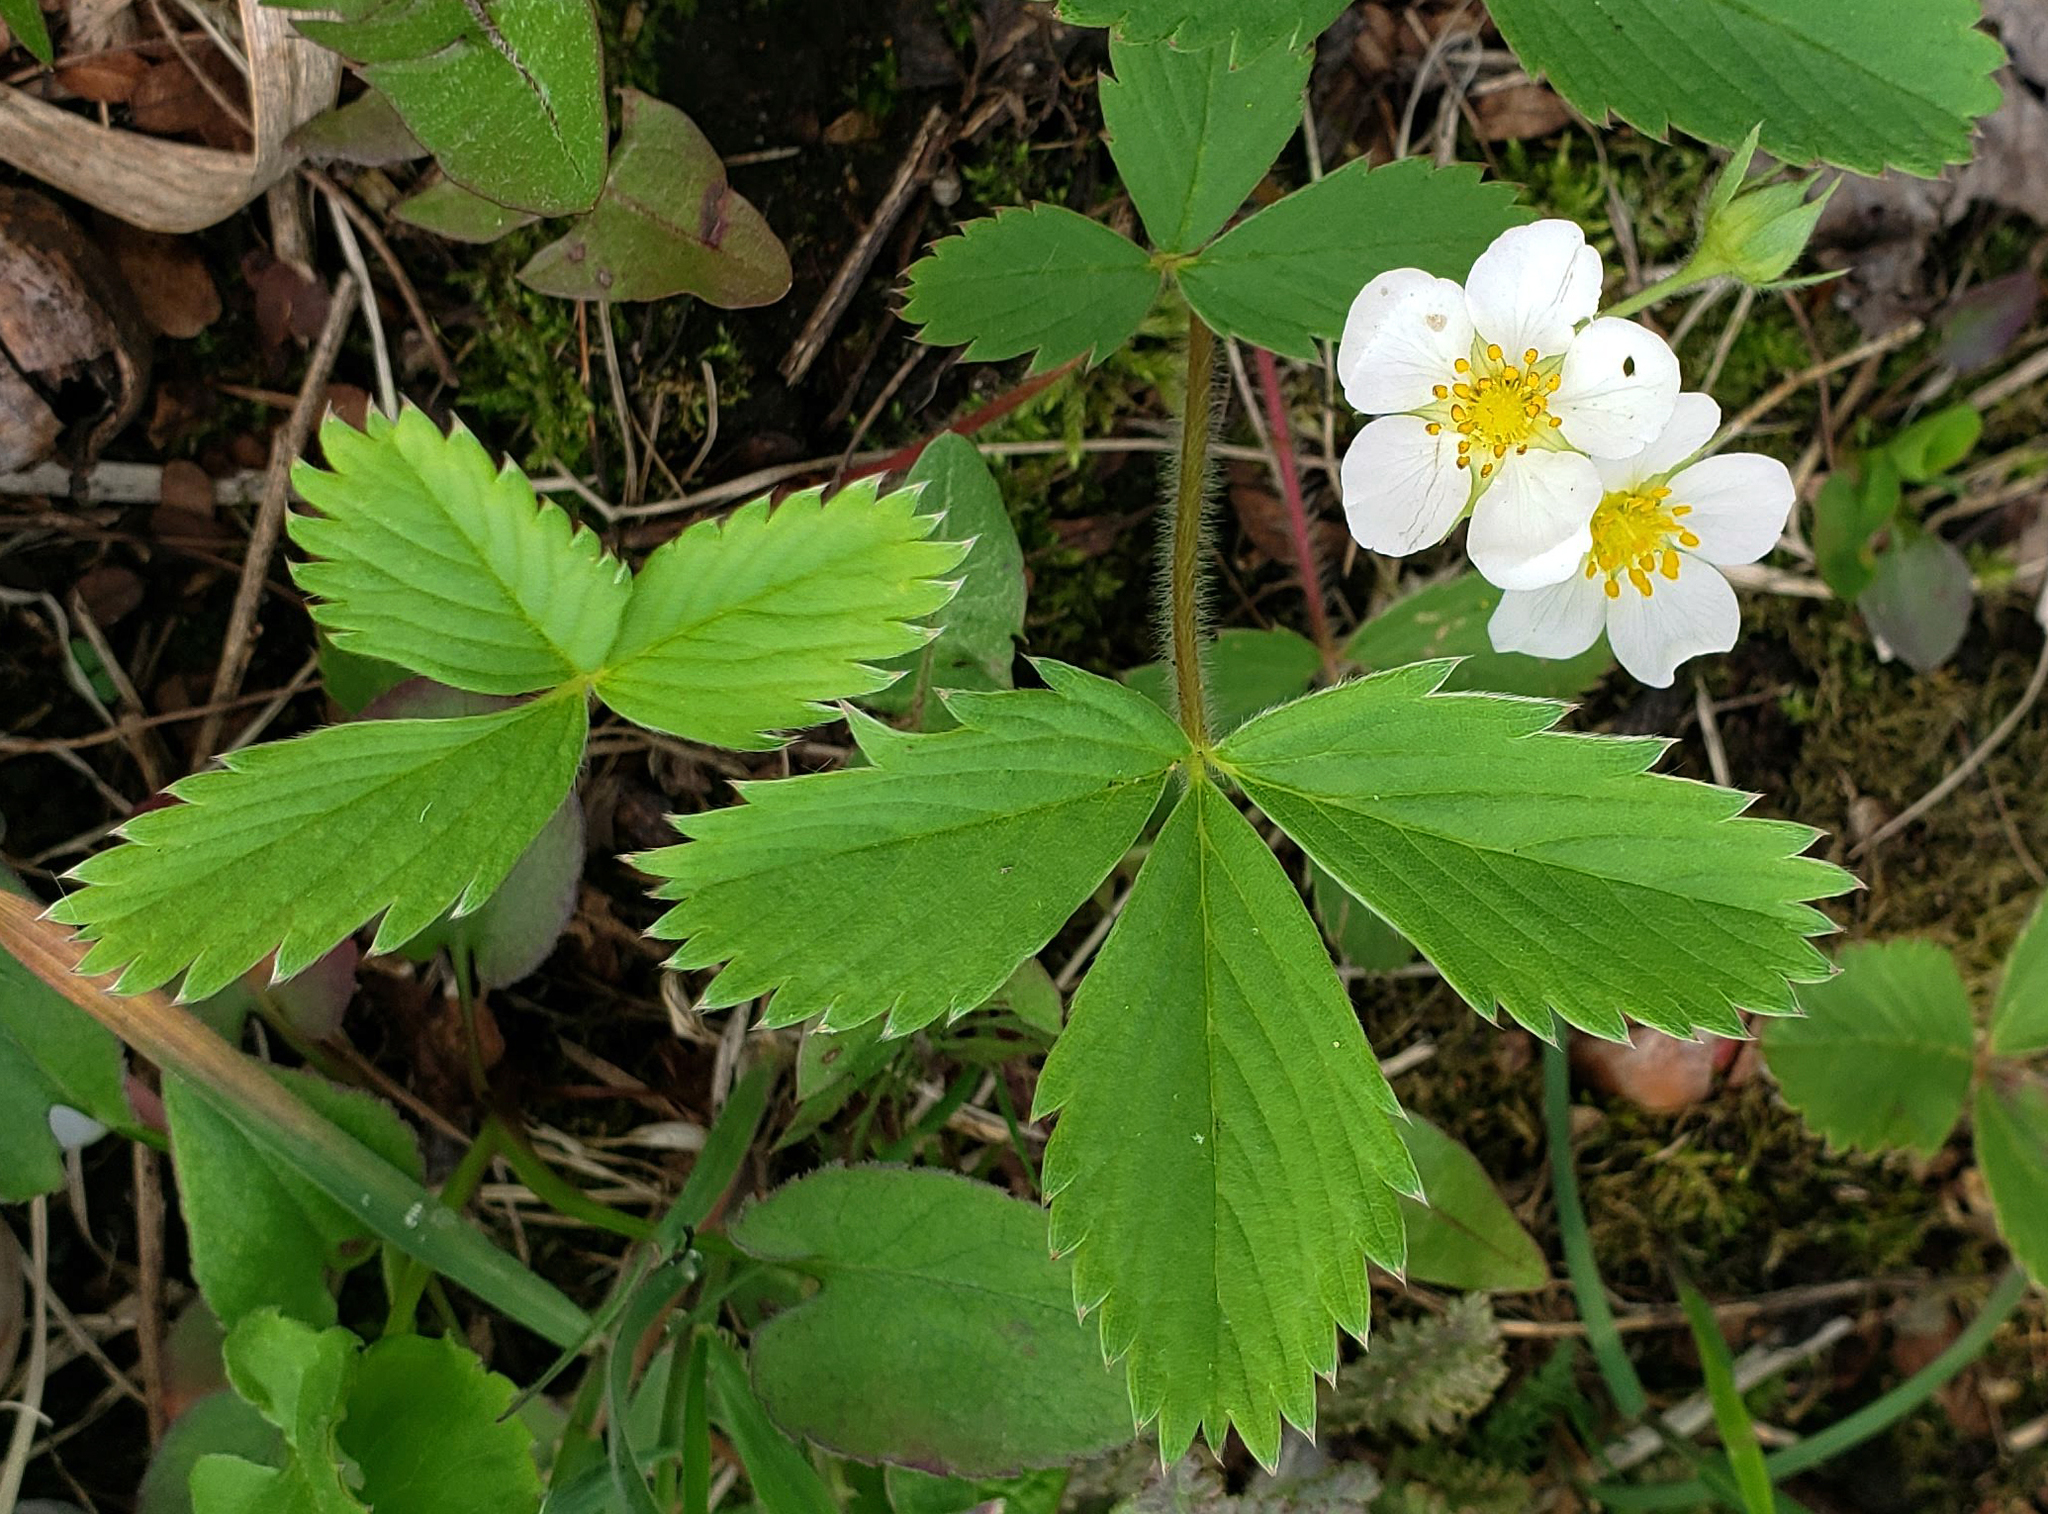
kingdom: Plantae
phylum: Tracheophyta
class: Magnoliopsida
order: Rosales
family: Rosaceae
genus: Fragaria
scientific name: Fragaria virginiana
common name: Thickleaved wild strawberry
